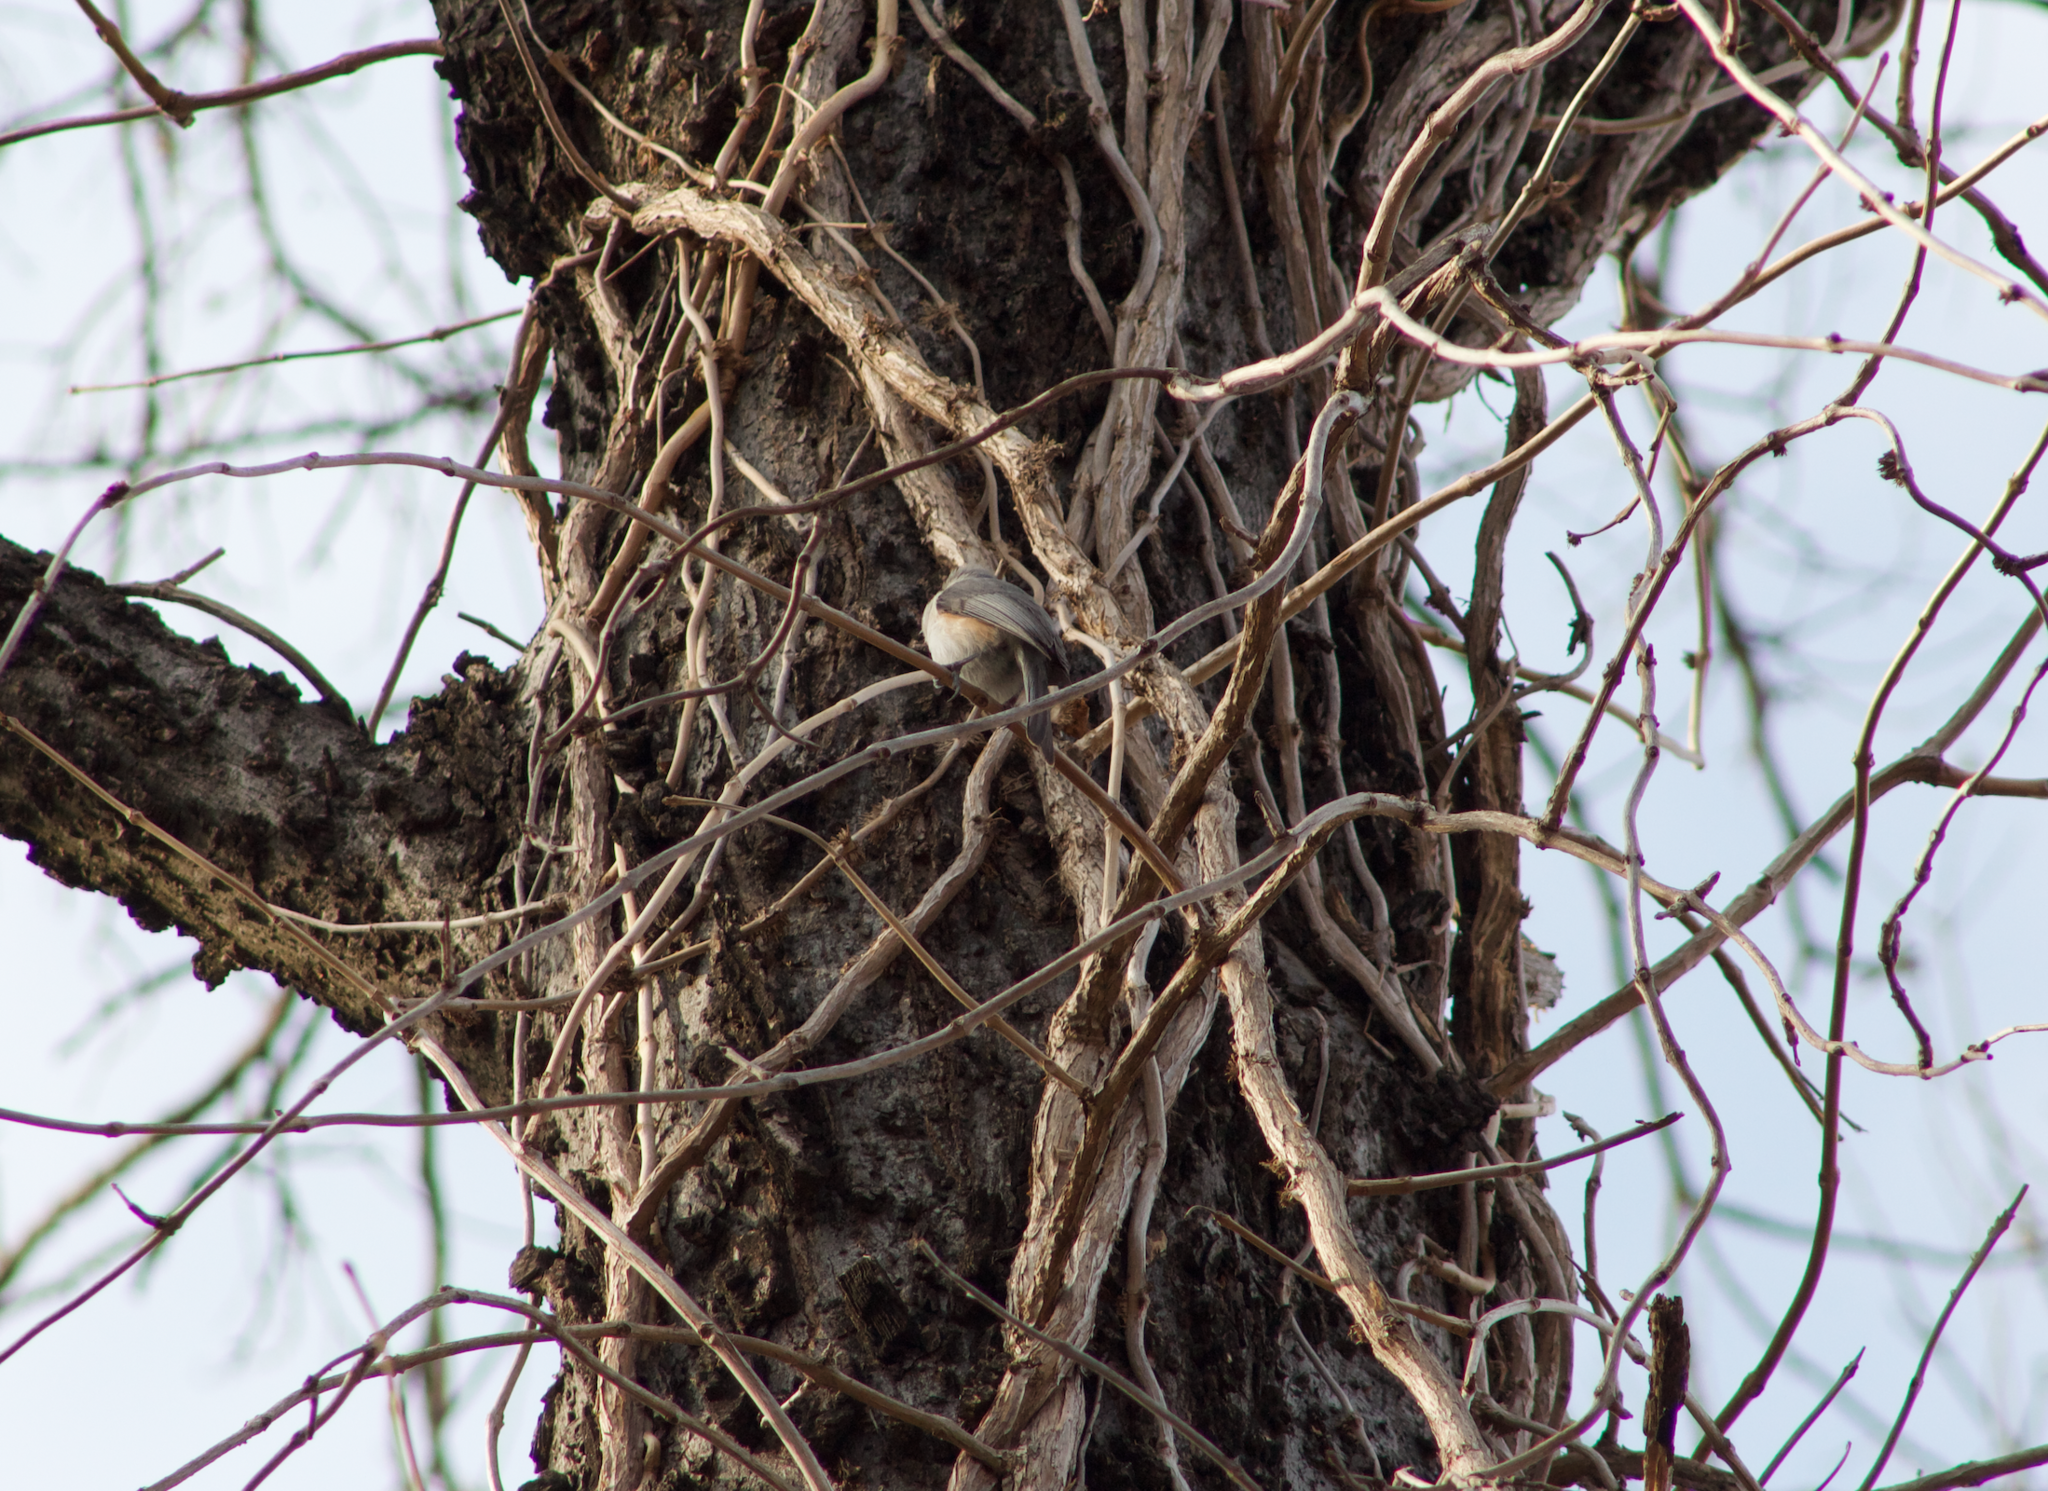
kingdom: Animalia
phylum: Chordata
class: Aves
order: Passeriformes
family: Paridae
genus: Baeolophus
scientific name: Baeolophus bicolor
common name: Tufted titmouse
